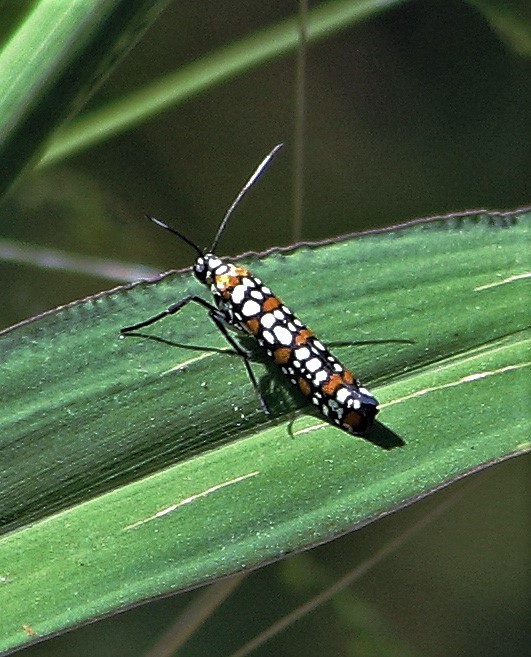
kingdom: Animalia
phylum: Arthropoda
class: Insecta
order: Lepidoptera
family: Attevidae
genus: Atteva
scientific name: Atteva punctella
